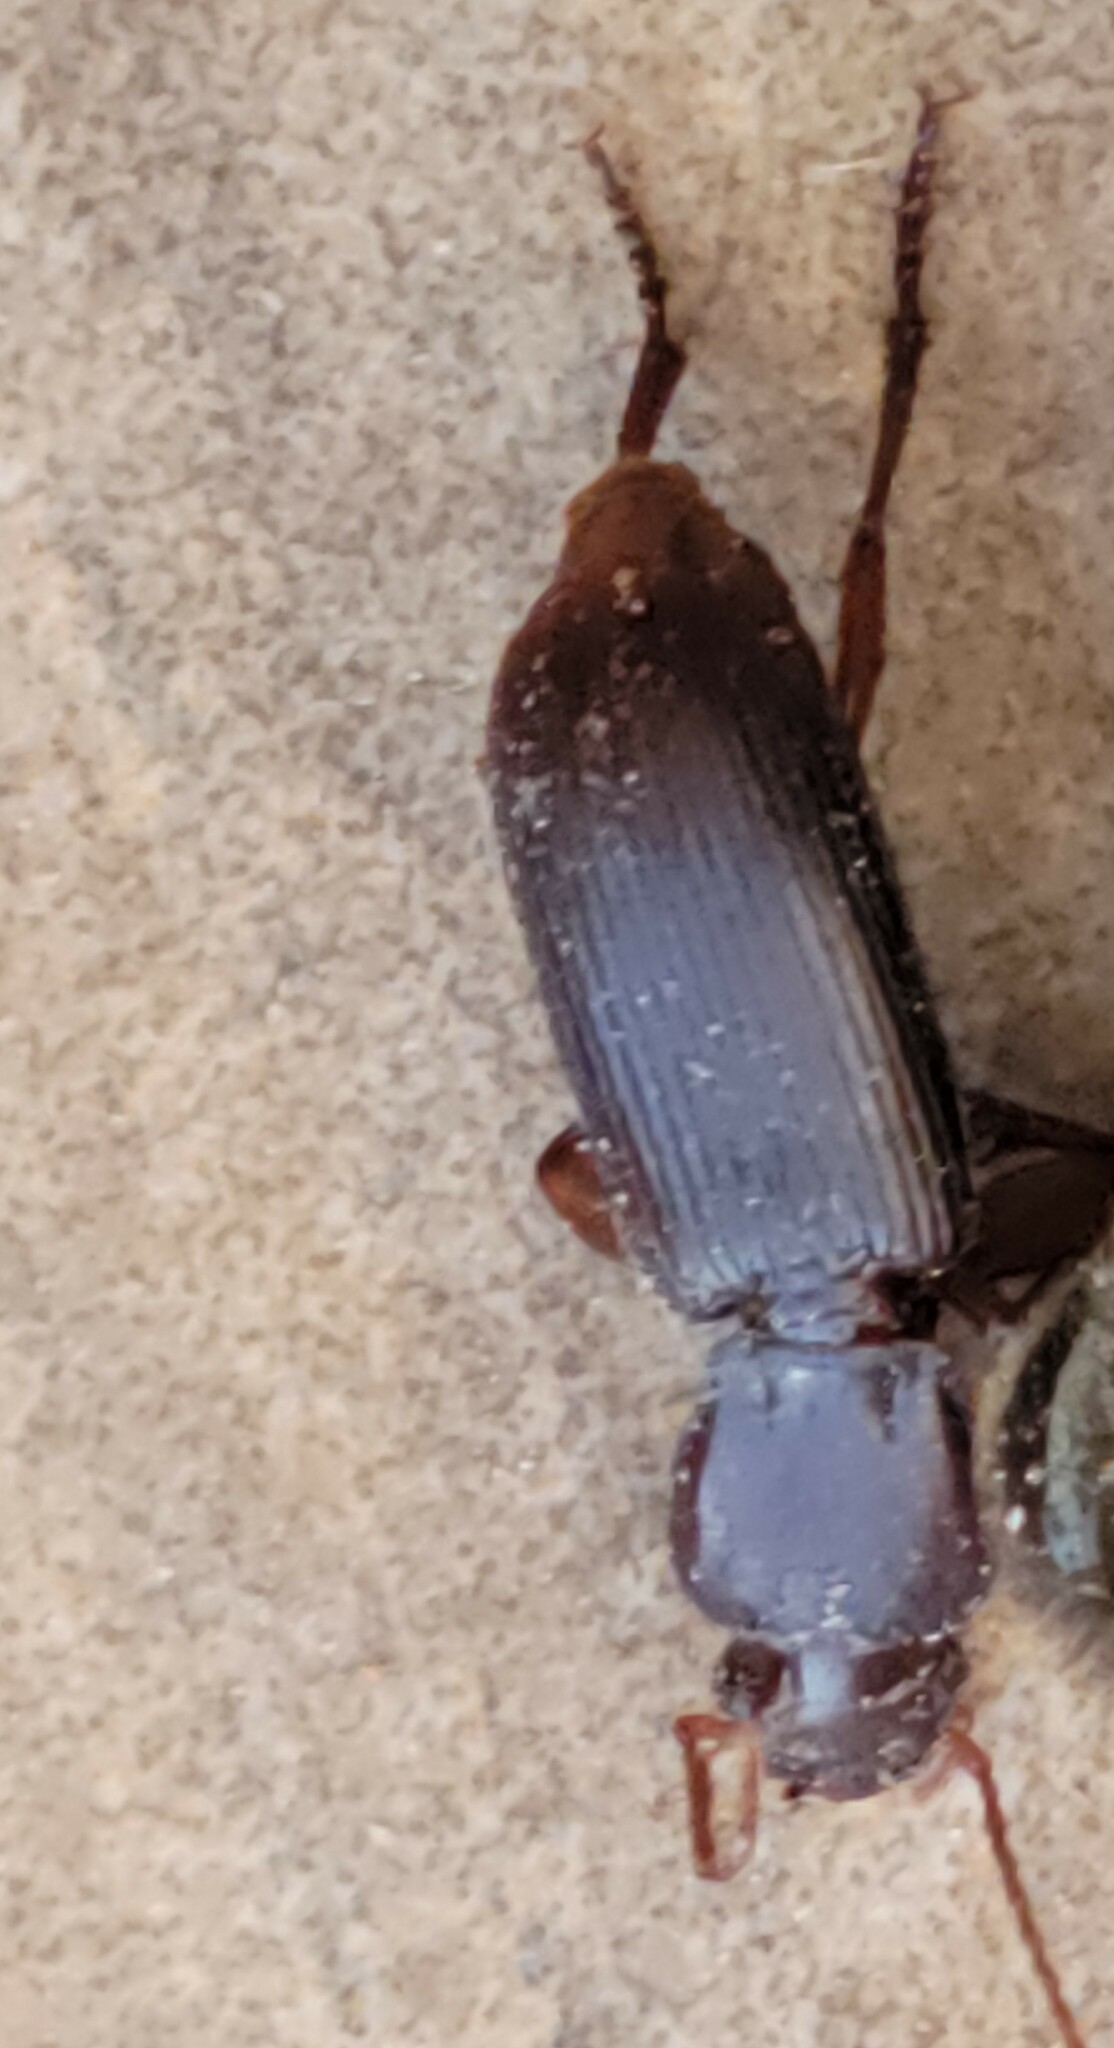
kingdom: Animalia
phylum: Arthropoda
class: Insecta
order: Coleoptera
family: Carabidae
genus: Stenomorphus
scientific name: Stenomorphus californicus
